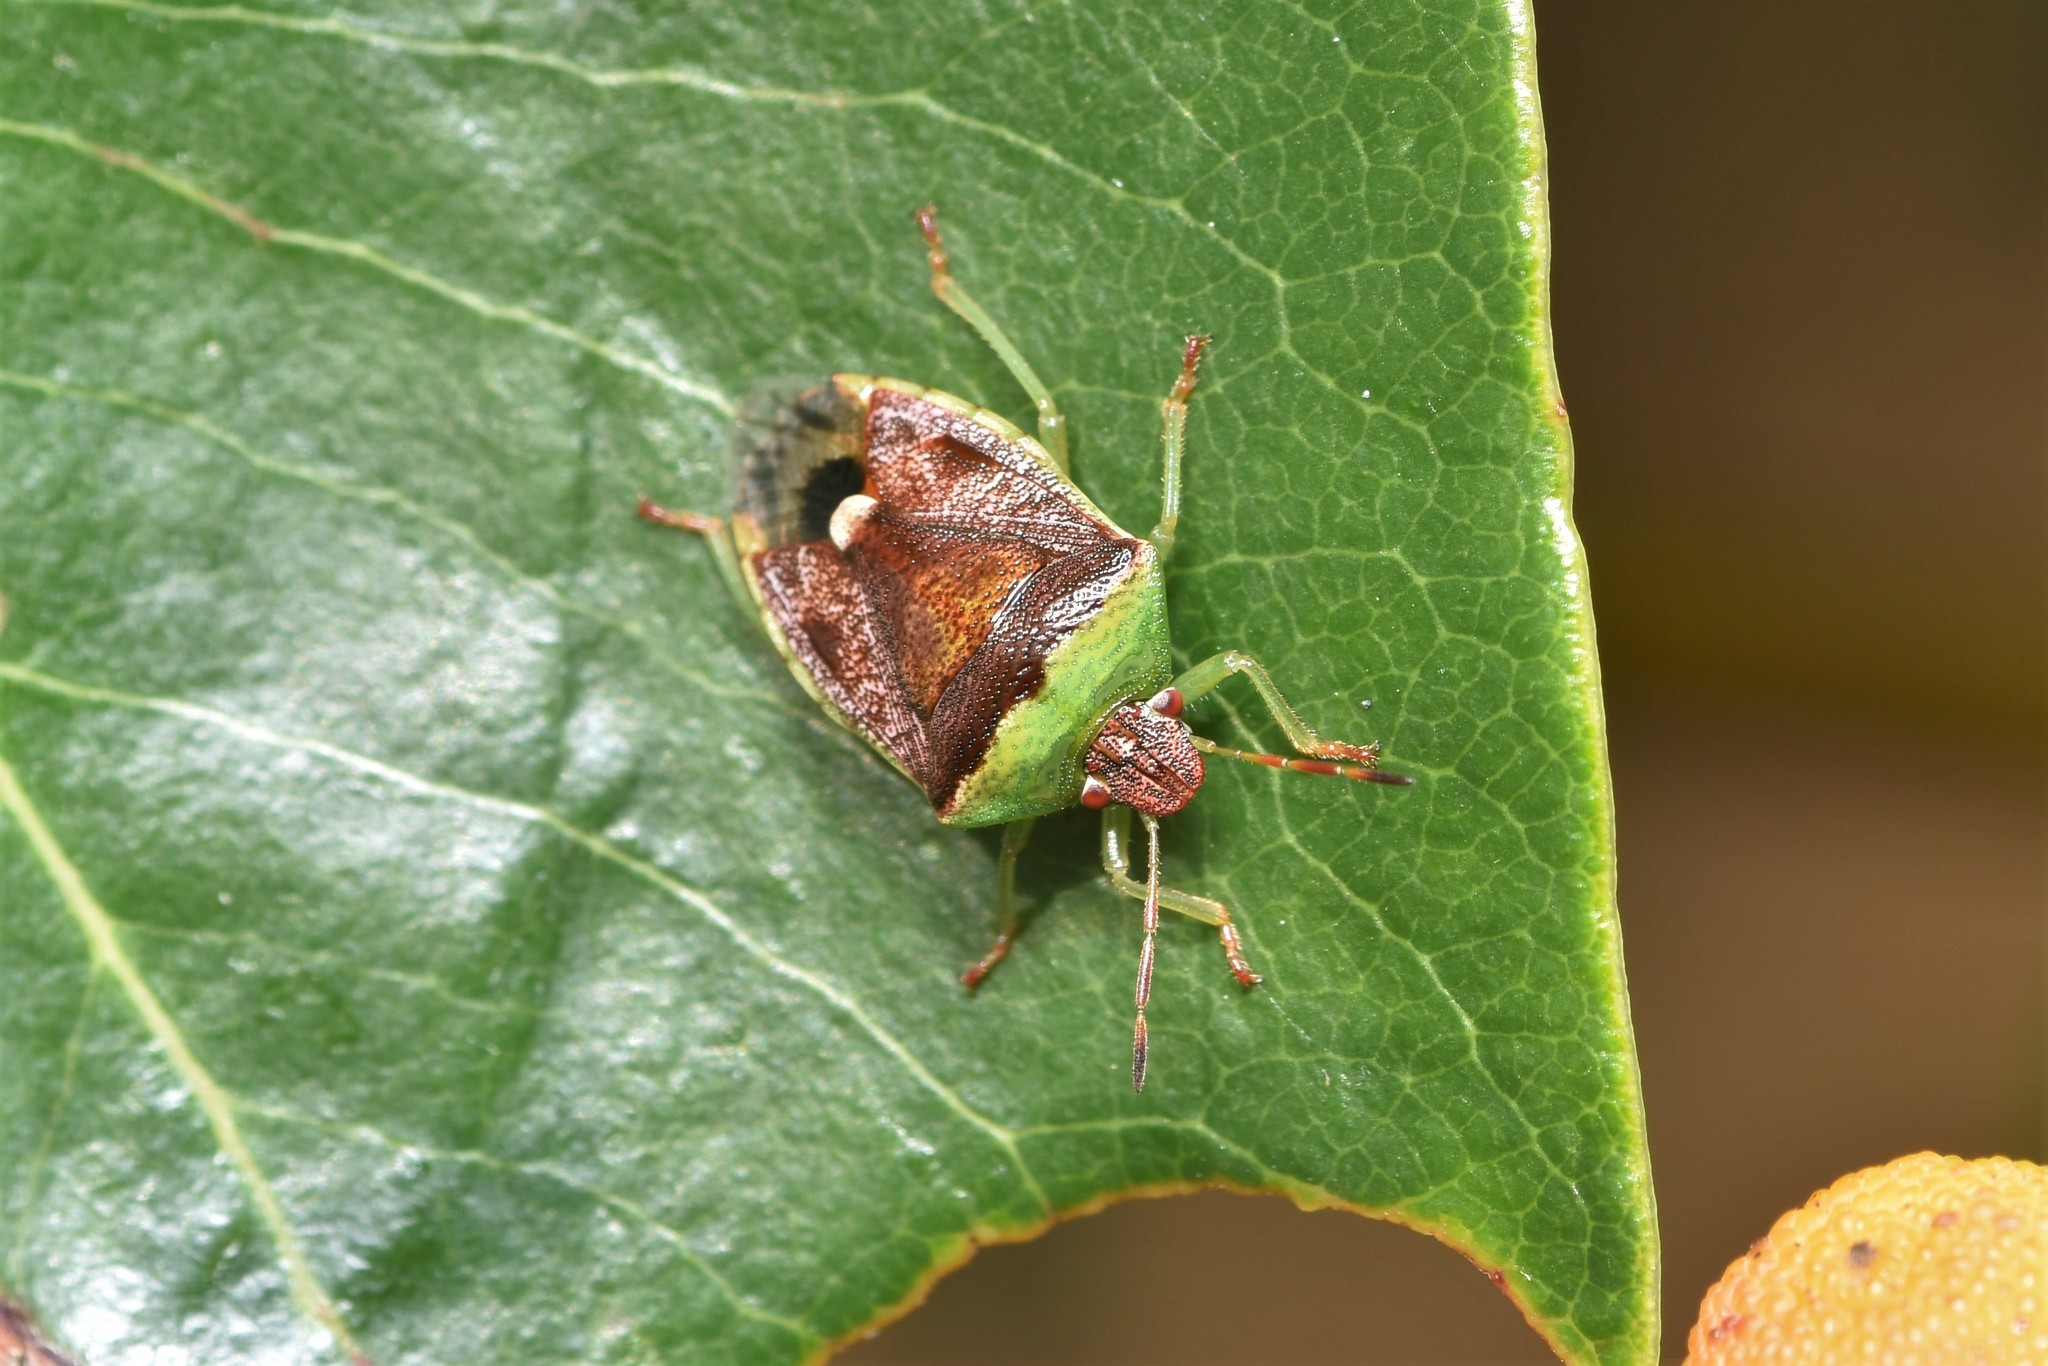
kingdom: Animalia
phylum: Arthropoda
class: Insecta
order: Hemiptera
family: Pentatomidae
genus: Banasa
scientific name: Banasa dimidiata
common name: Green burgundy stink bug
